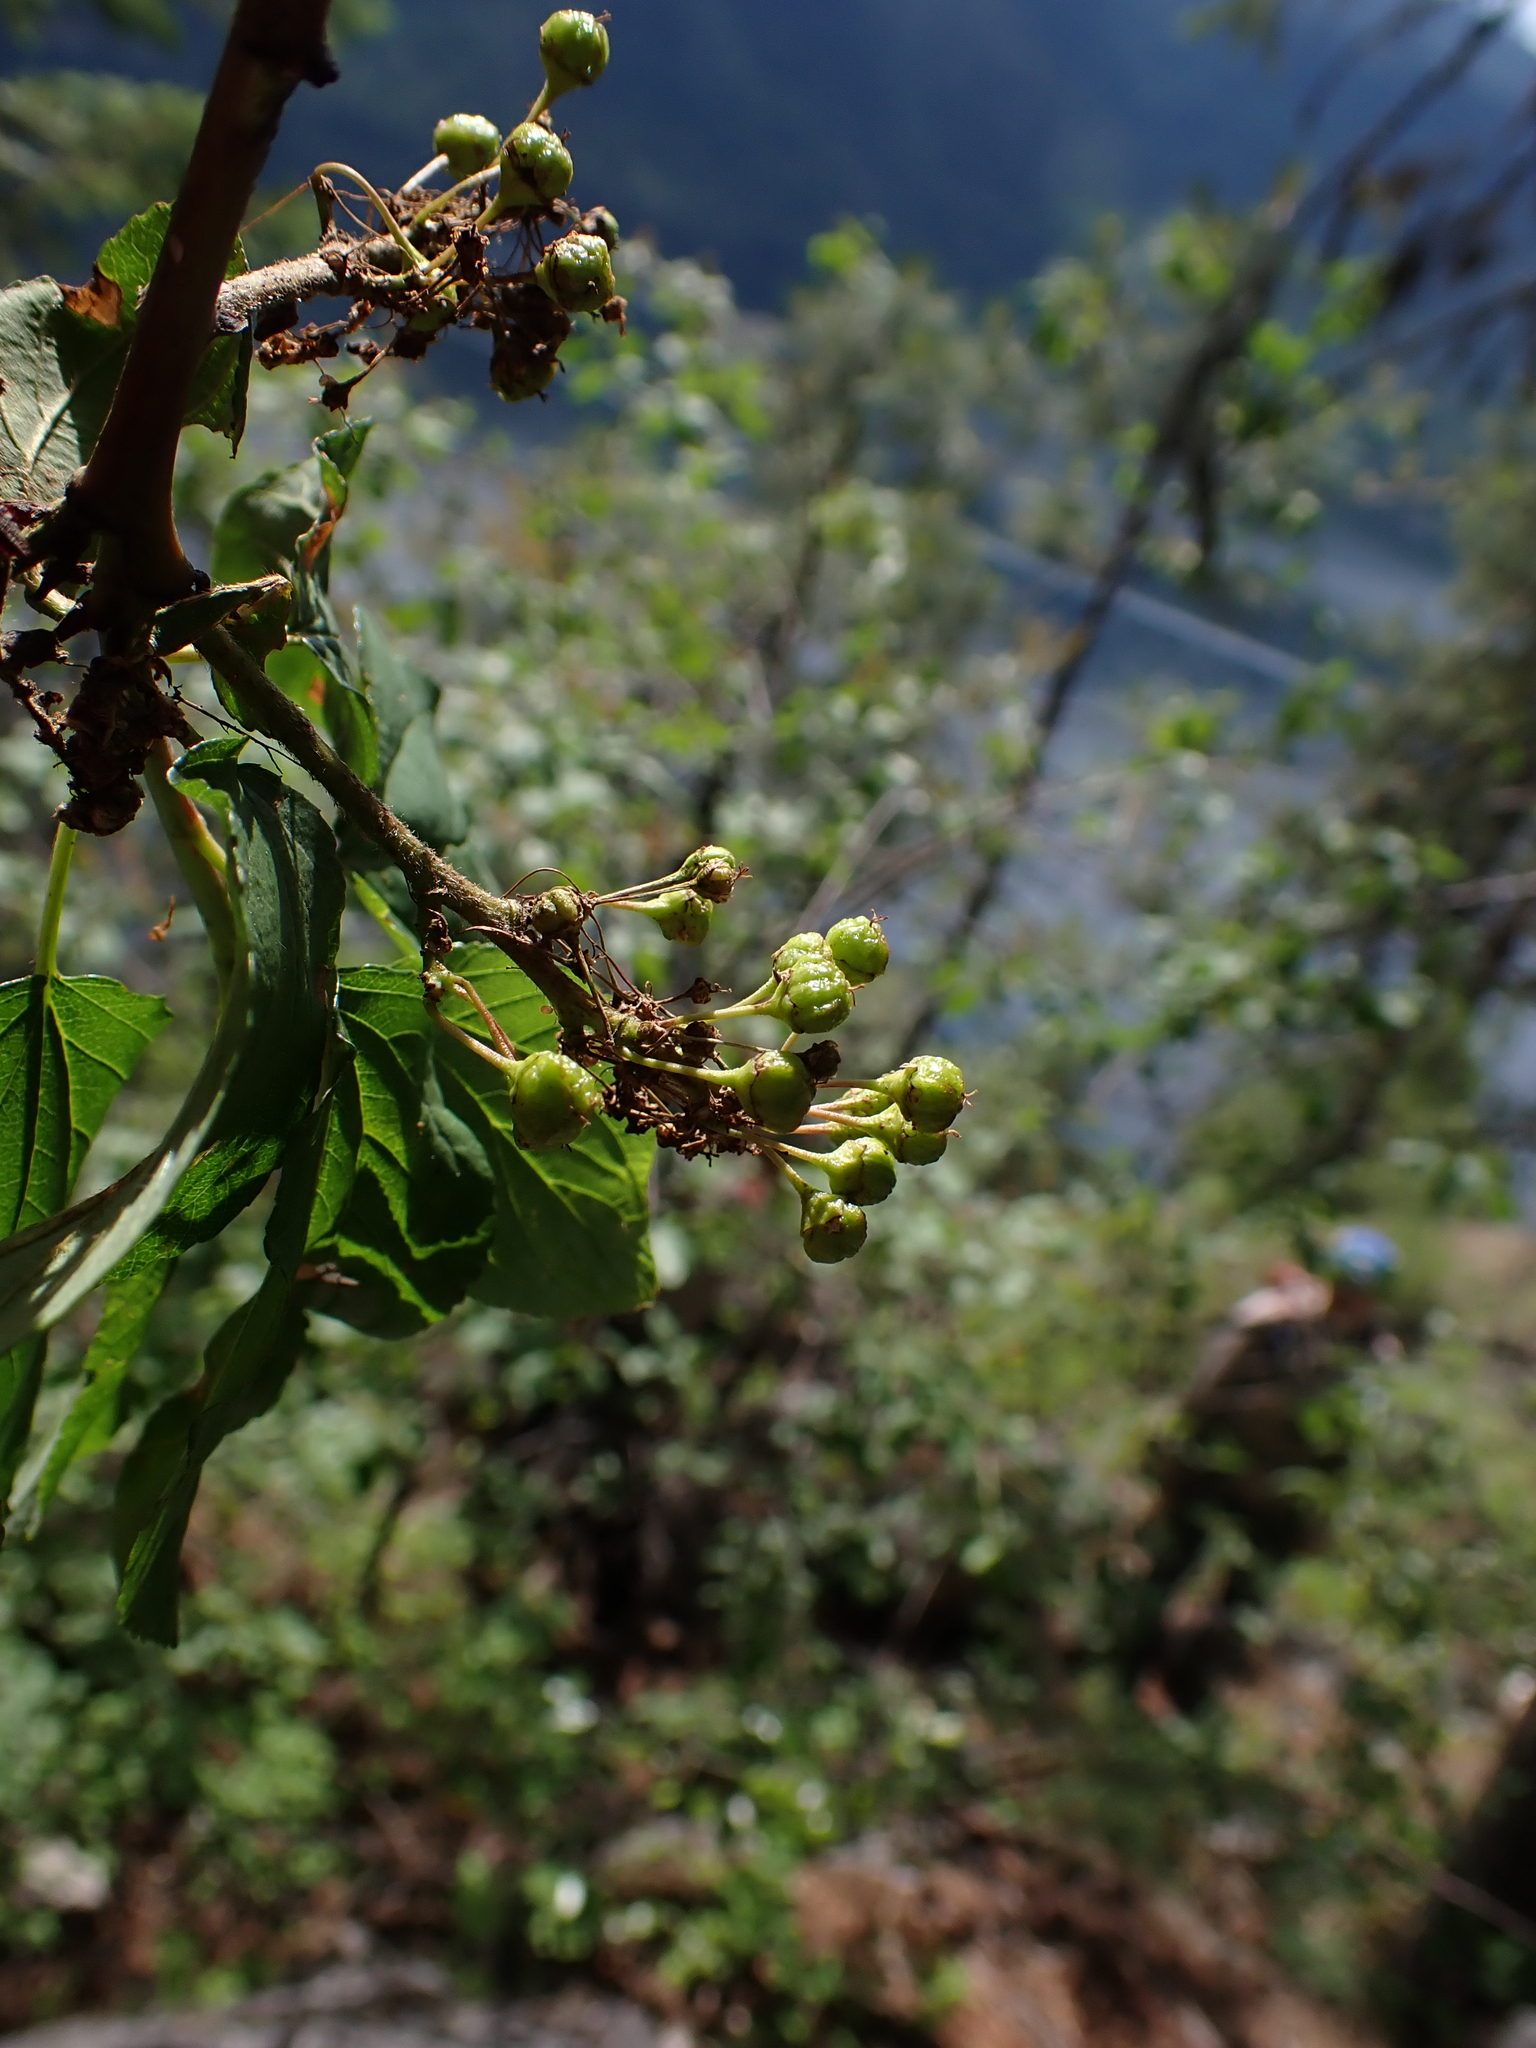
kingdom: Plantae
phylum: Tracheophyta
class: Magnoliopsida
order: Rosales
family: Rhamnaceae
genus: Ceanothus
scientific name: Ceanothus sanguineus
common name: Teatree
